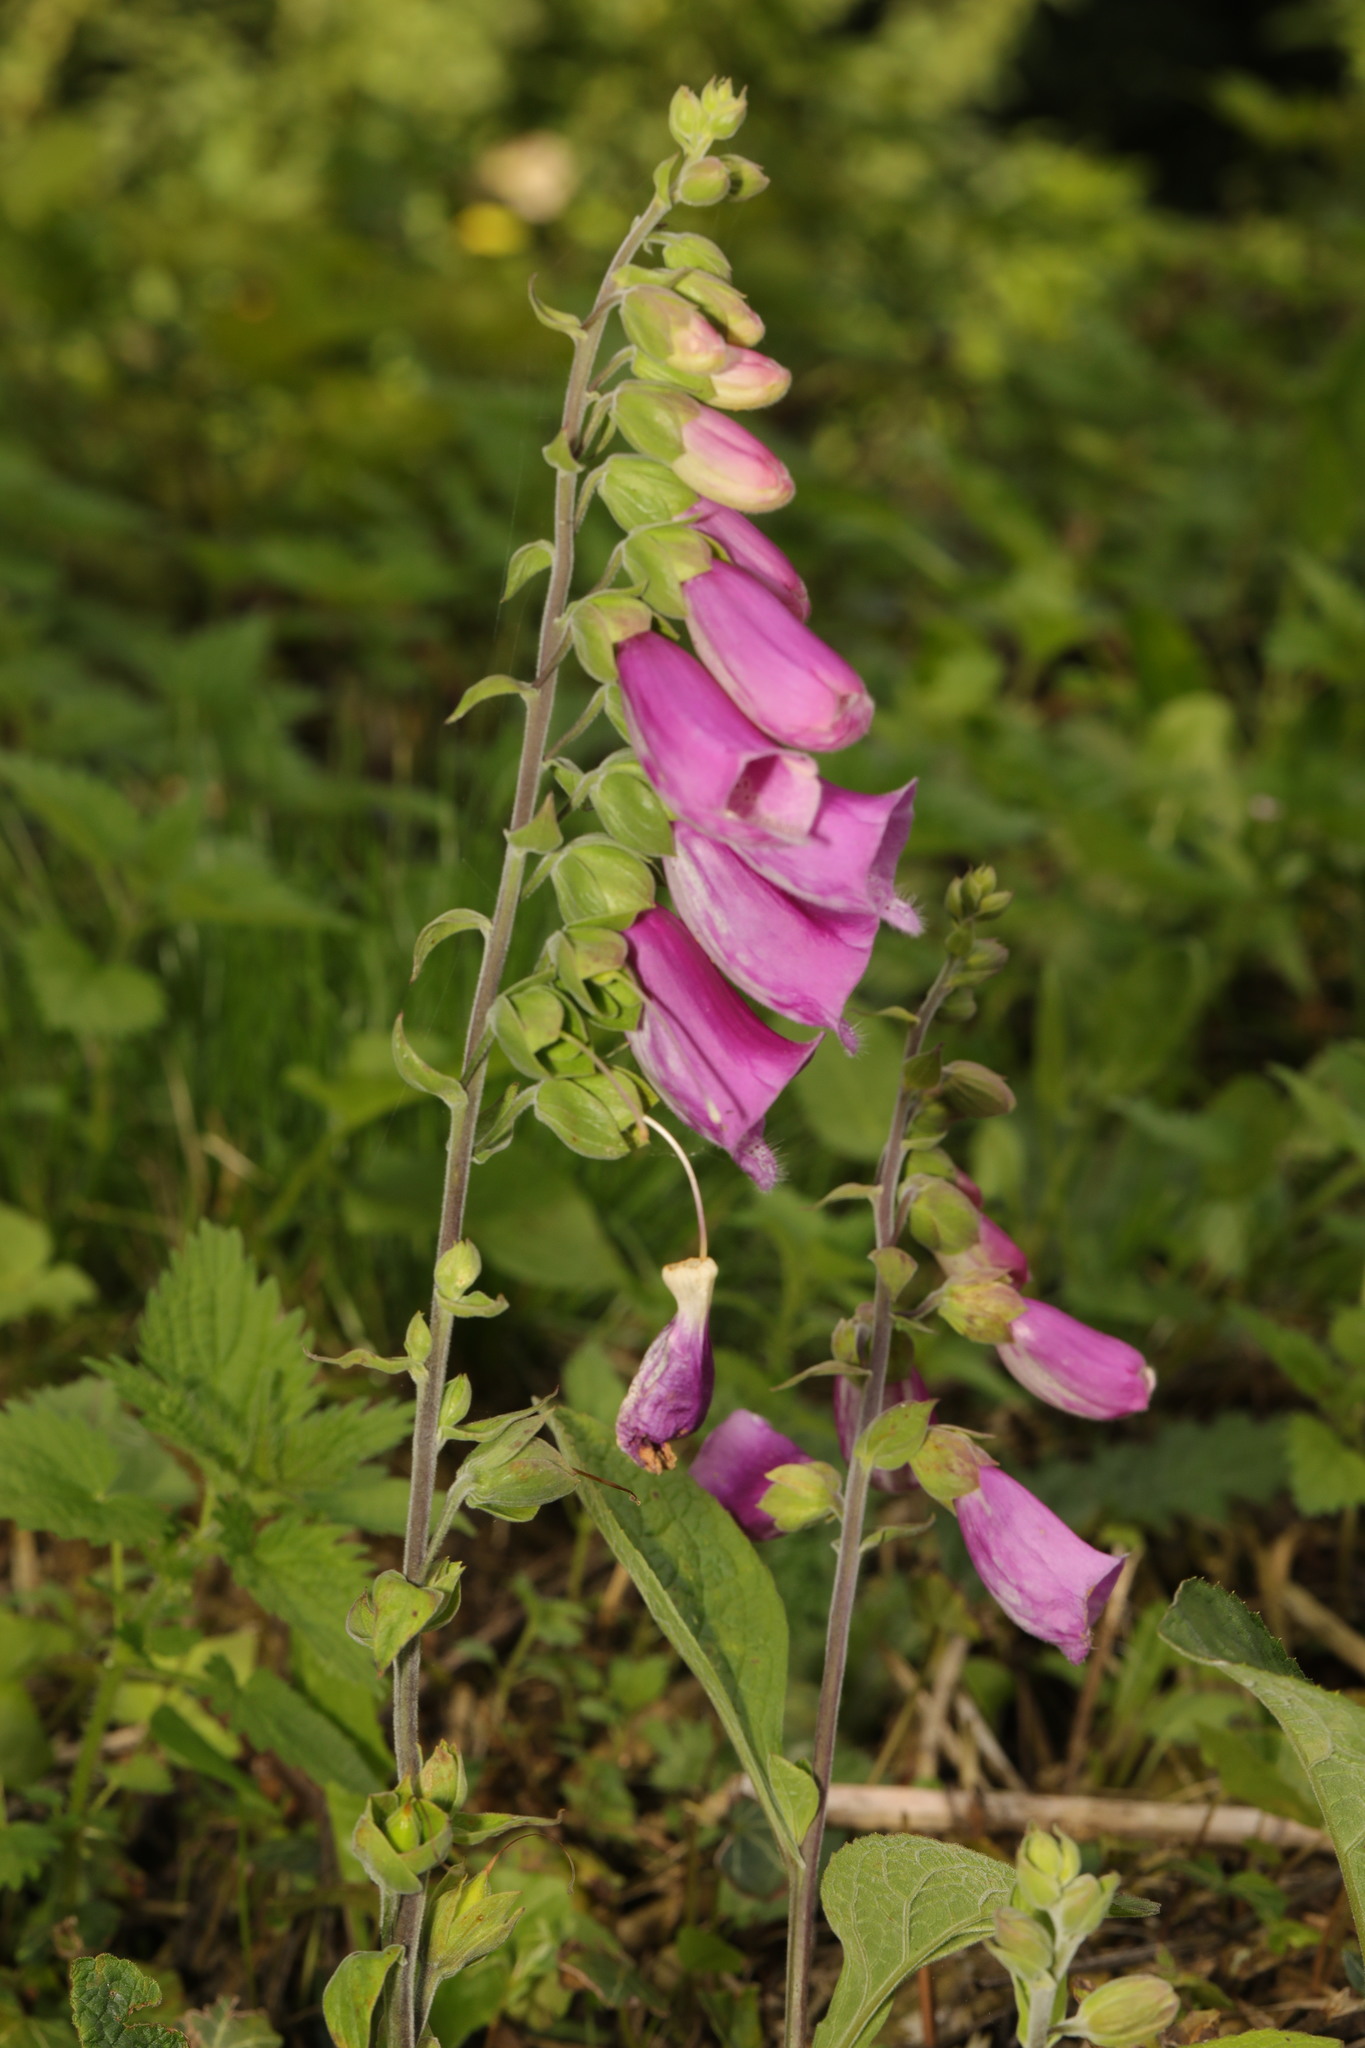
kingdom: Plantae
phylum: Tracheophyta
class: Magnoliopsida
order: Lamiales
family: Plantaginaceae
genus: Digitalis
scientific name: Digitalis purpurea
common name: Foxglove
